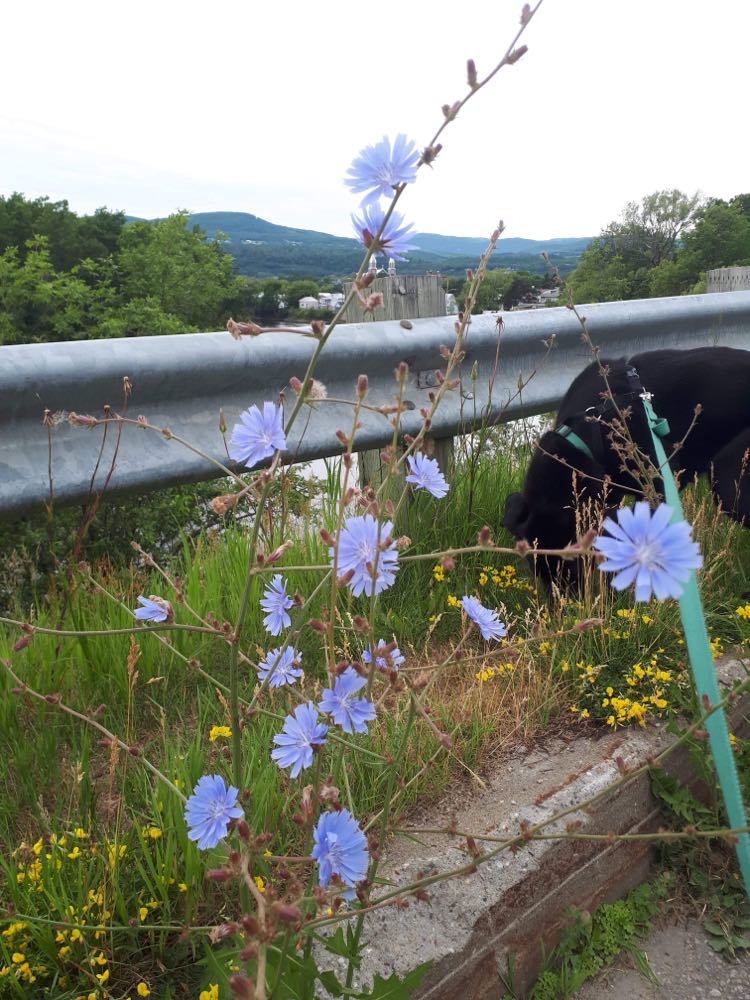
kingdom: Plantae
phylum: Tracheophyta
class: Magnoliopsida
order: Asterales
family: Asteraceae
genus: Cichorium
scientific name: Cichorium intybus
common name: Chicory
